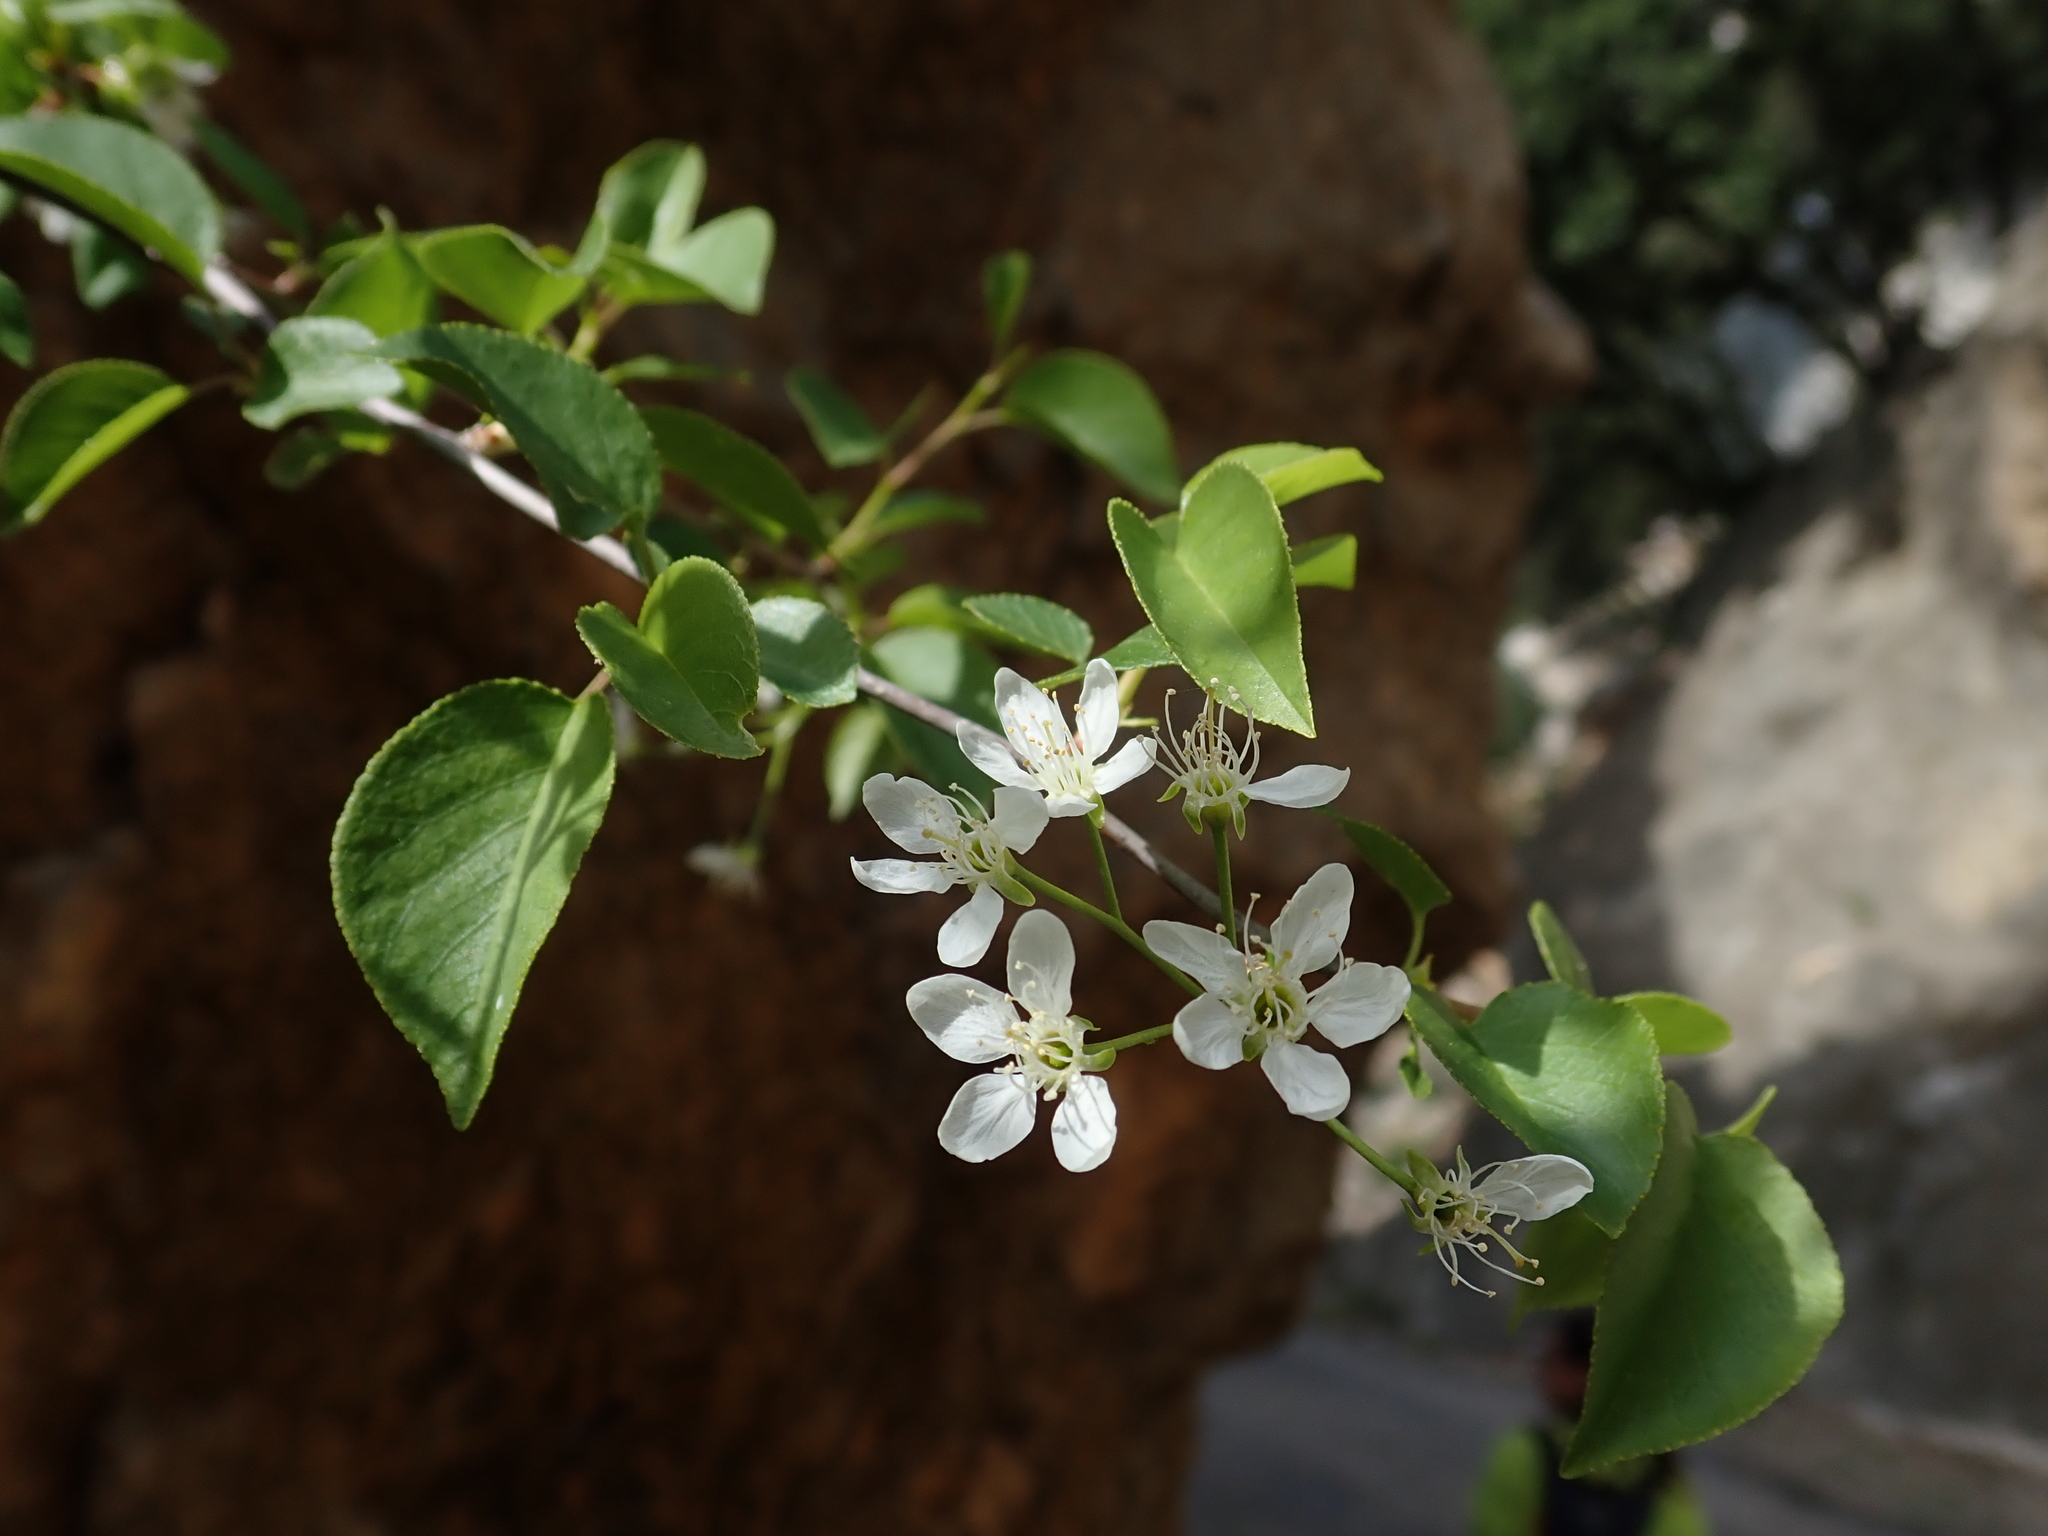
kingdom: Plantae
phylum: Tracheophyta
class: Magnoliopsida
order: Rosales
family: Rosaceae
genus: Prunus
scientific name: Prunus mahaleb
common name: Mahaleb cherry
